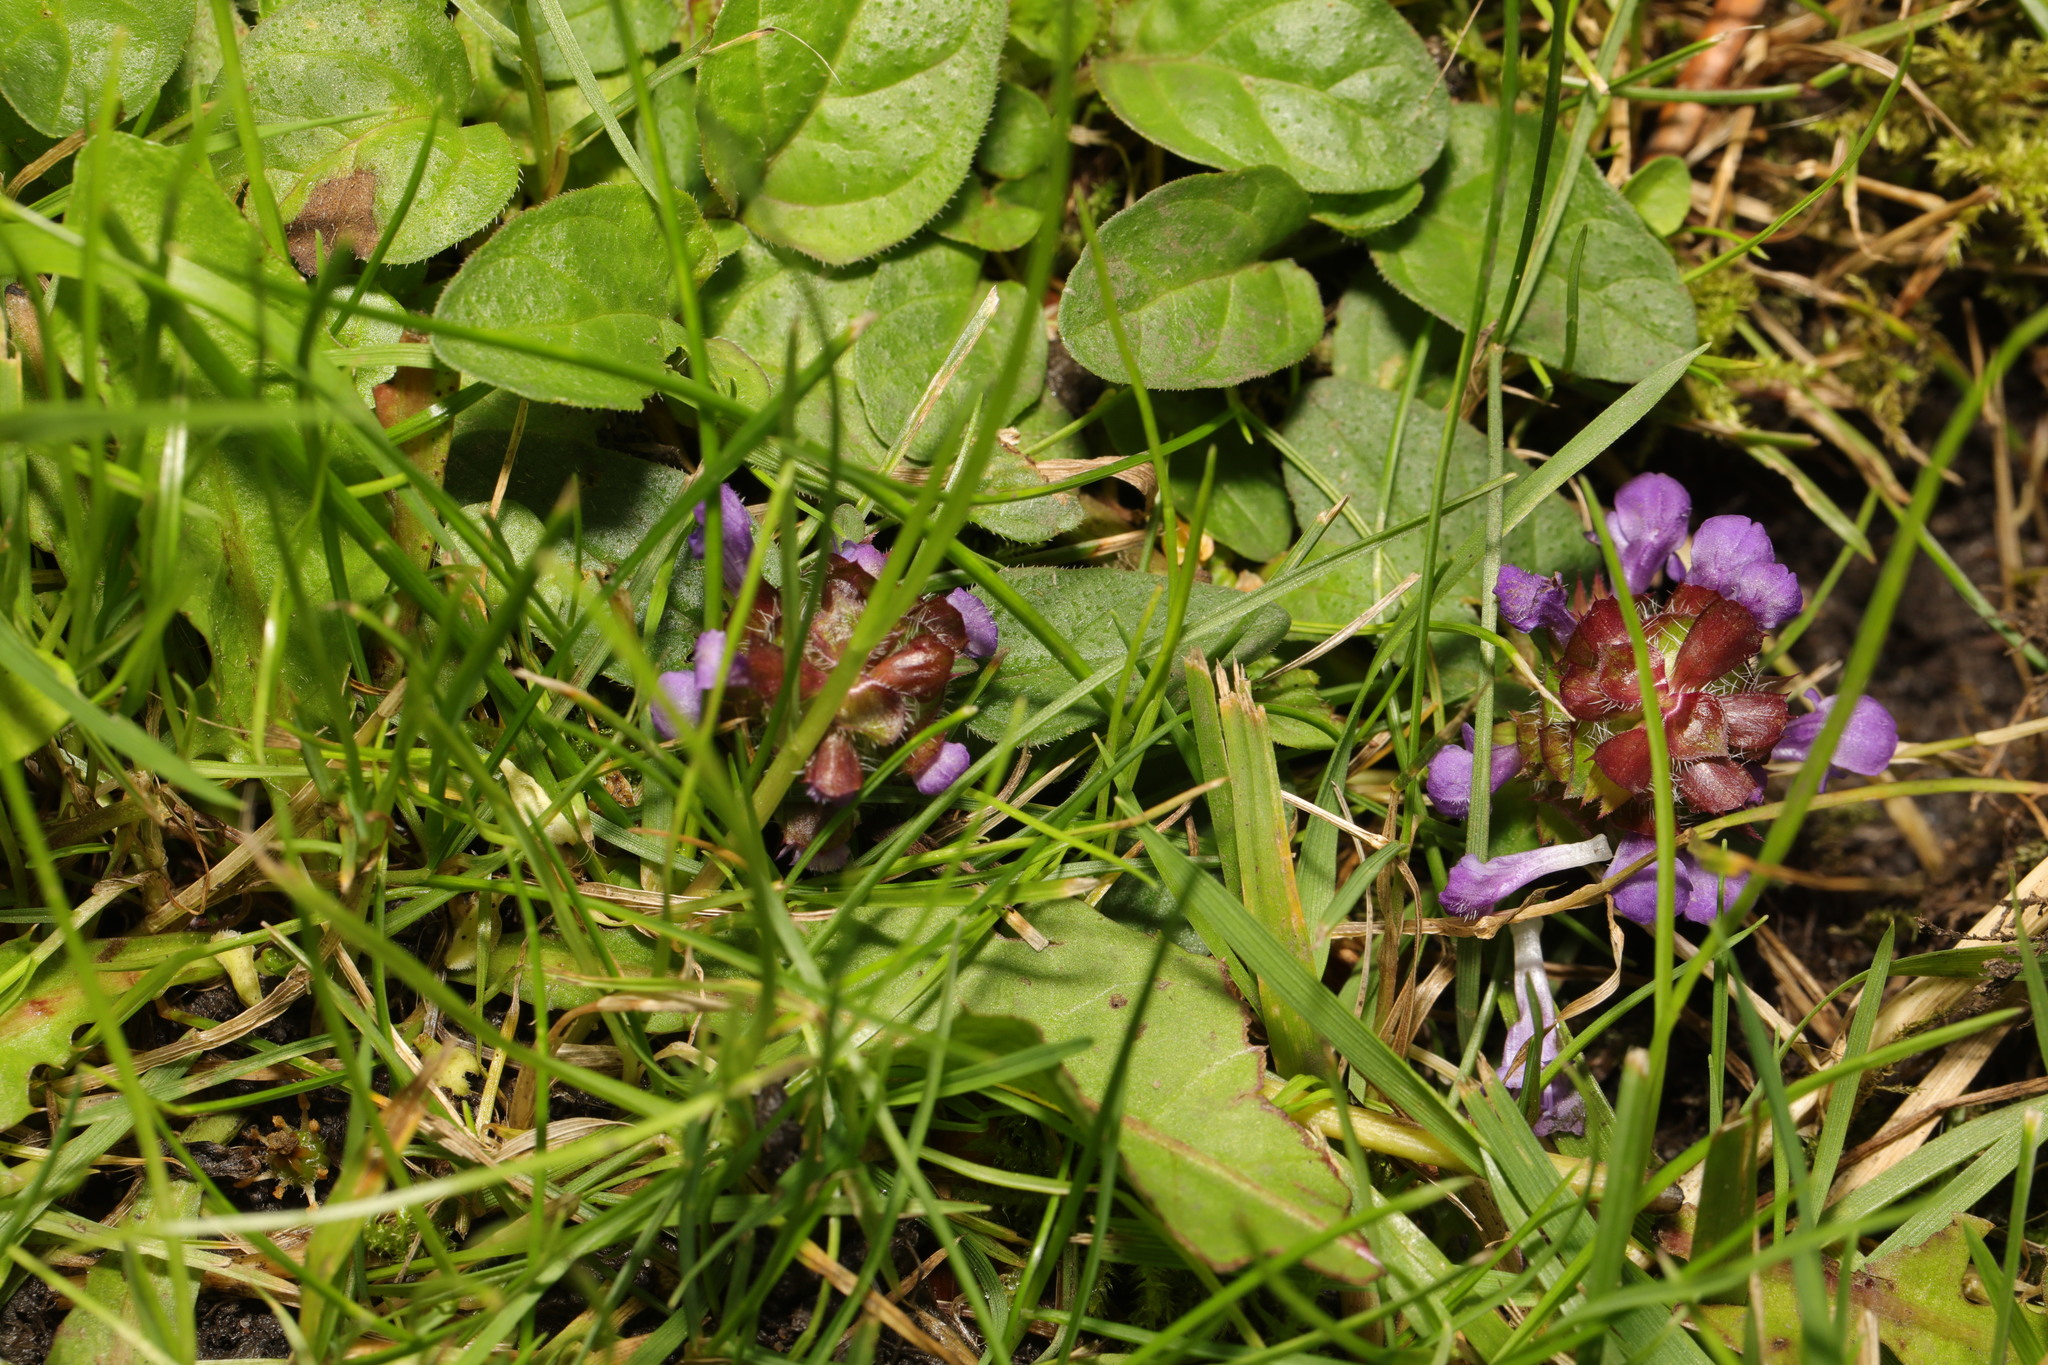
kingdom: Plantae
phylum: Tracheophyta
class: Magnoliopsida
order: Lamiales
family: Lamiaceae
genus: Prunella
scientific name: Prunella vulgaris
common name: Heal-all
